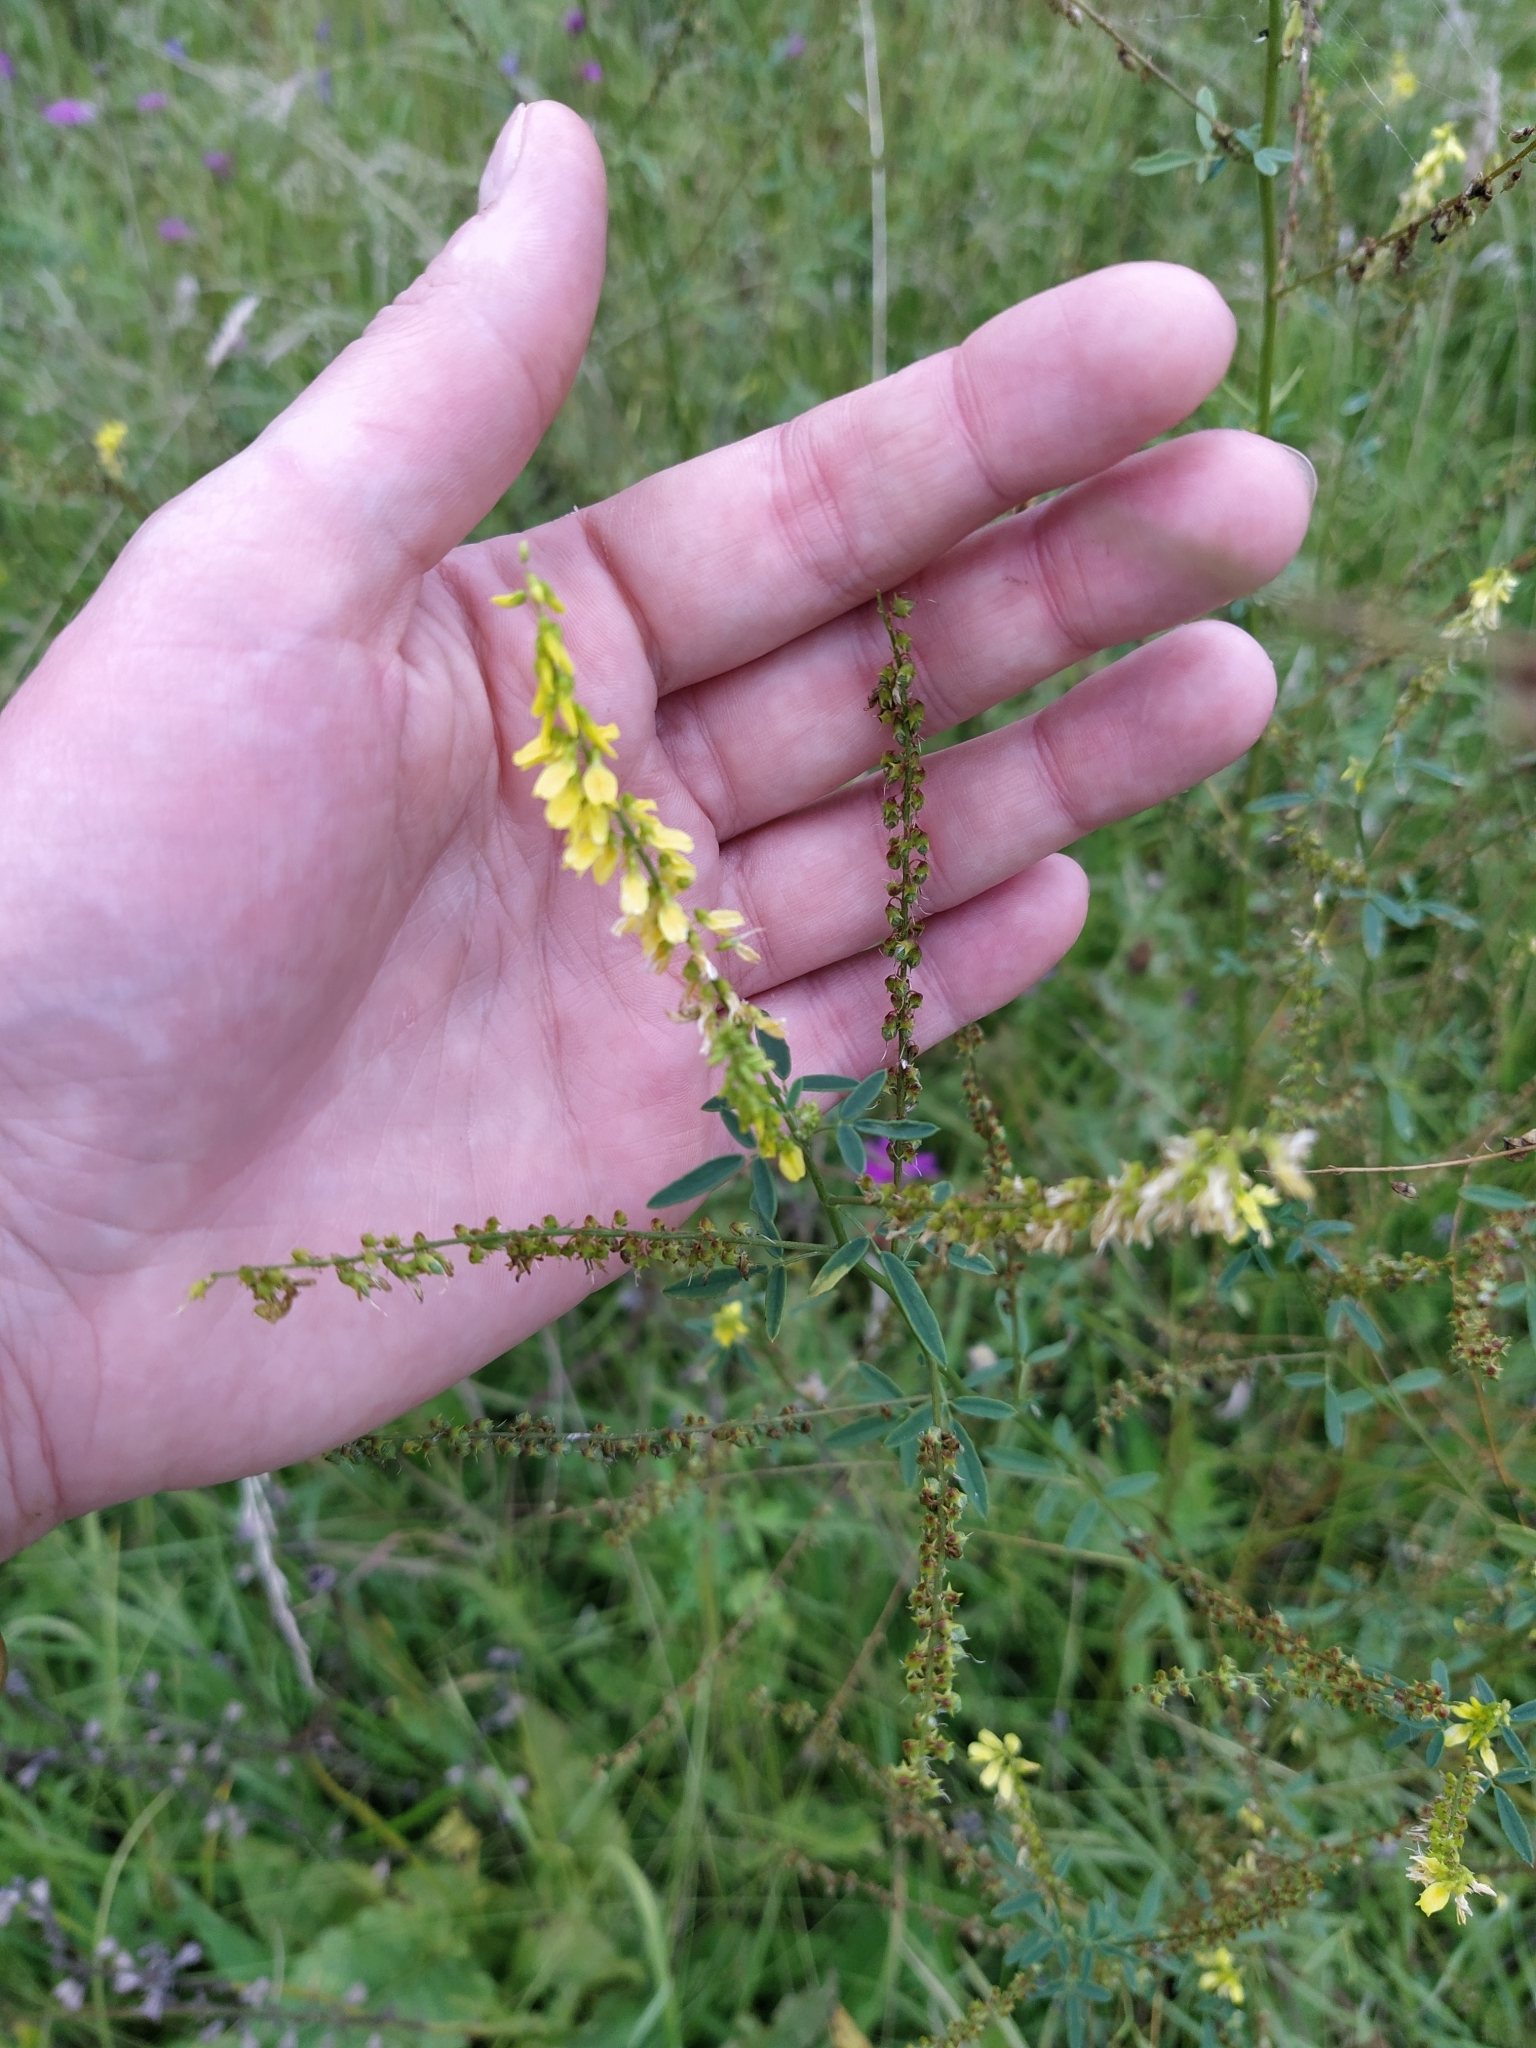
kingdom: Plantae
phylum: Tracheophyta
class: Magnoliopsida
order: Fabales
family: Fabaceae
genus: Melilotus
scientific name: Melilotus officinalis
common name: Sweetclover
